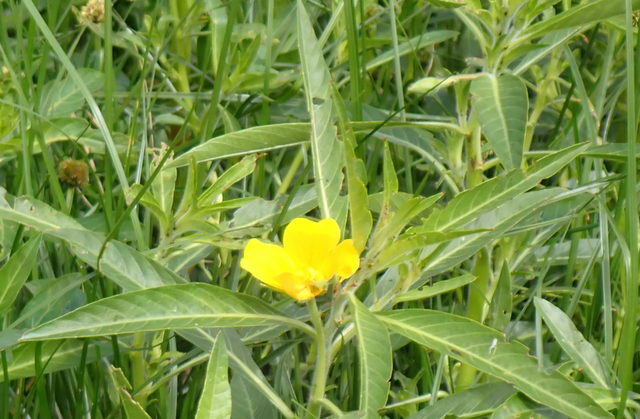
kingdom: Plantae
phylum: Tracheophyta
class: Magnoliopsida
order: Myrtales
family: Onagraceae
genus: Ludwigia
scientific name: Ludwigia hexapetala
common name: Water-primrose
